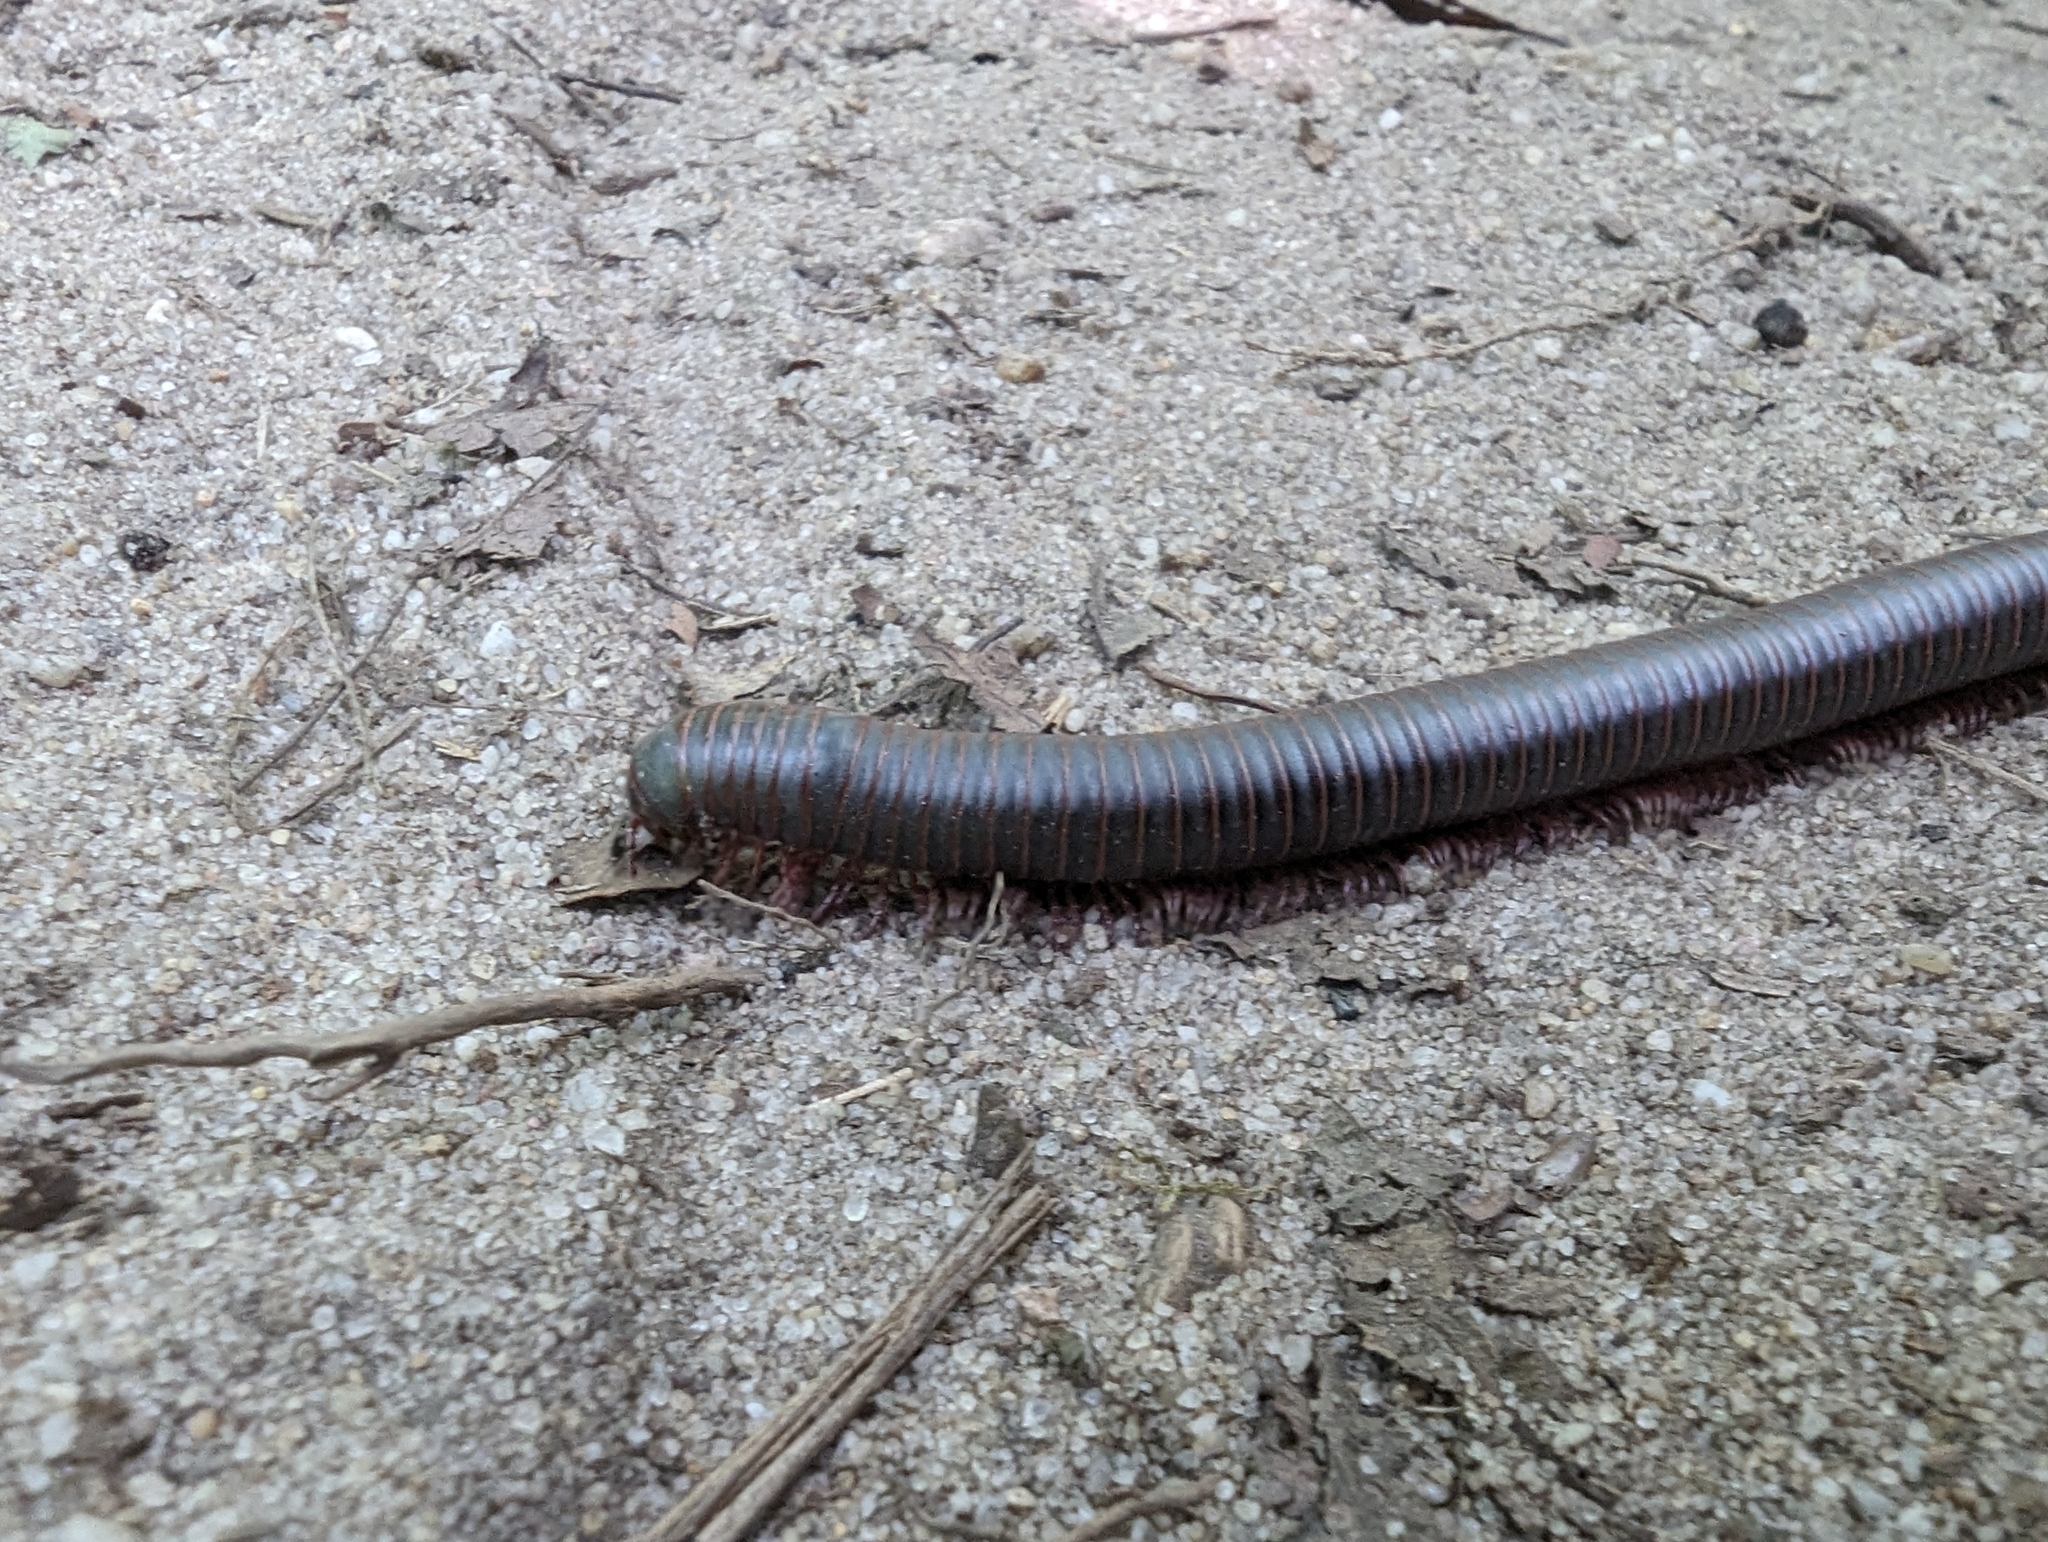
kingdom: Animalia
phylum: Arthropoda
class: Diplopoda
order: Spirobolida
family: Spirobolidae
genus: Narceus
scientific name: Narceus americanus
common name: American giant millipede
